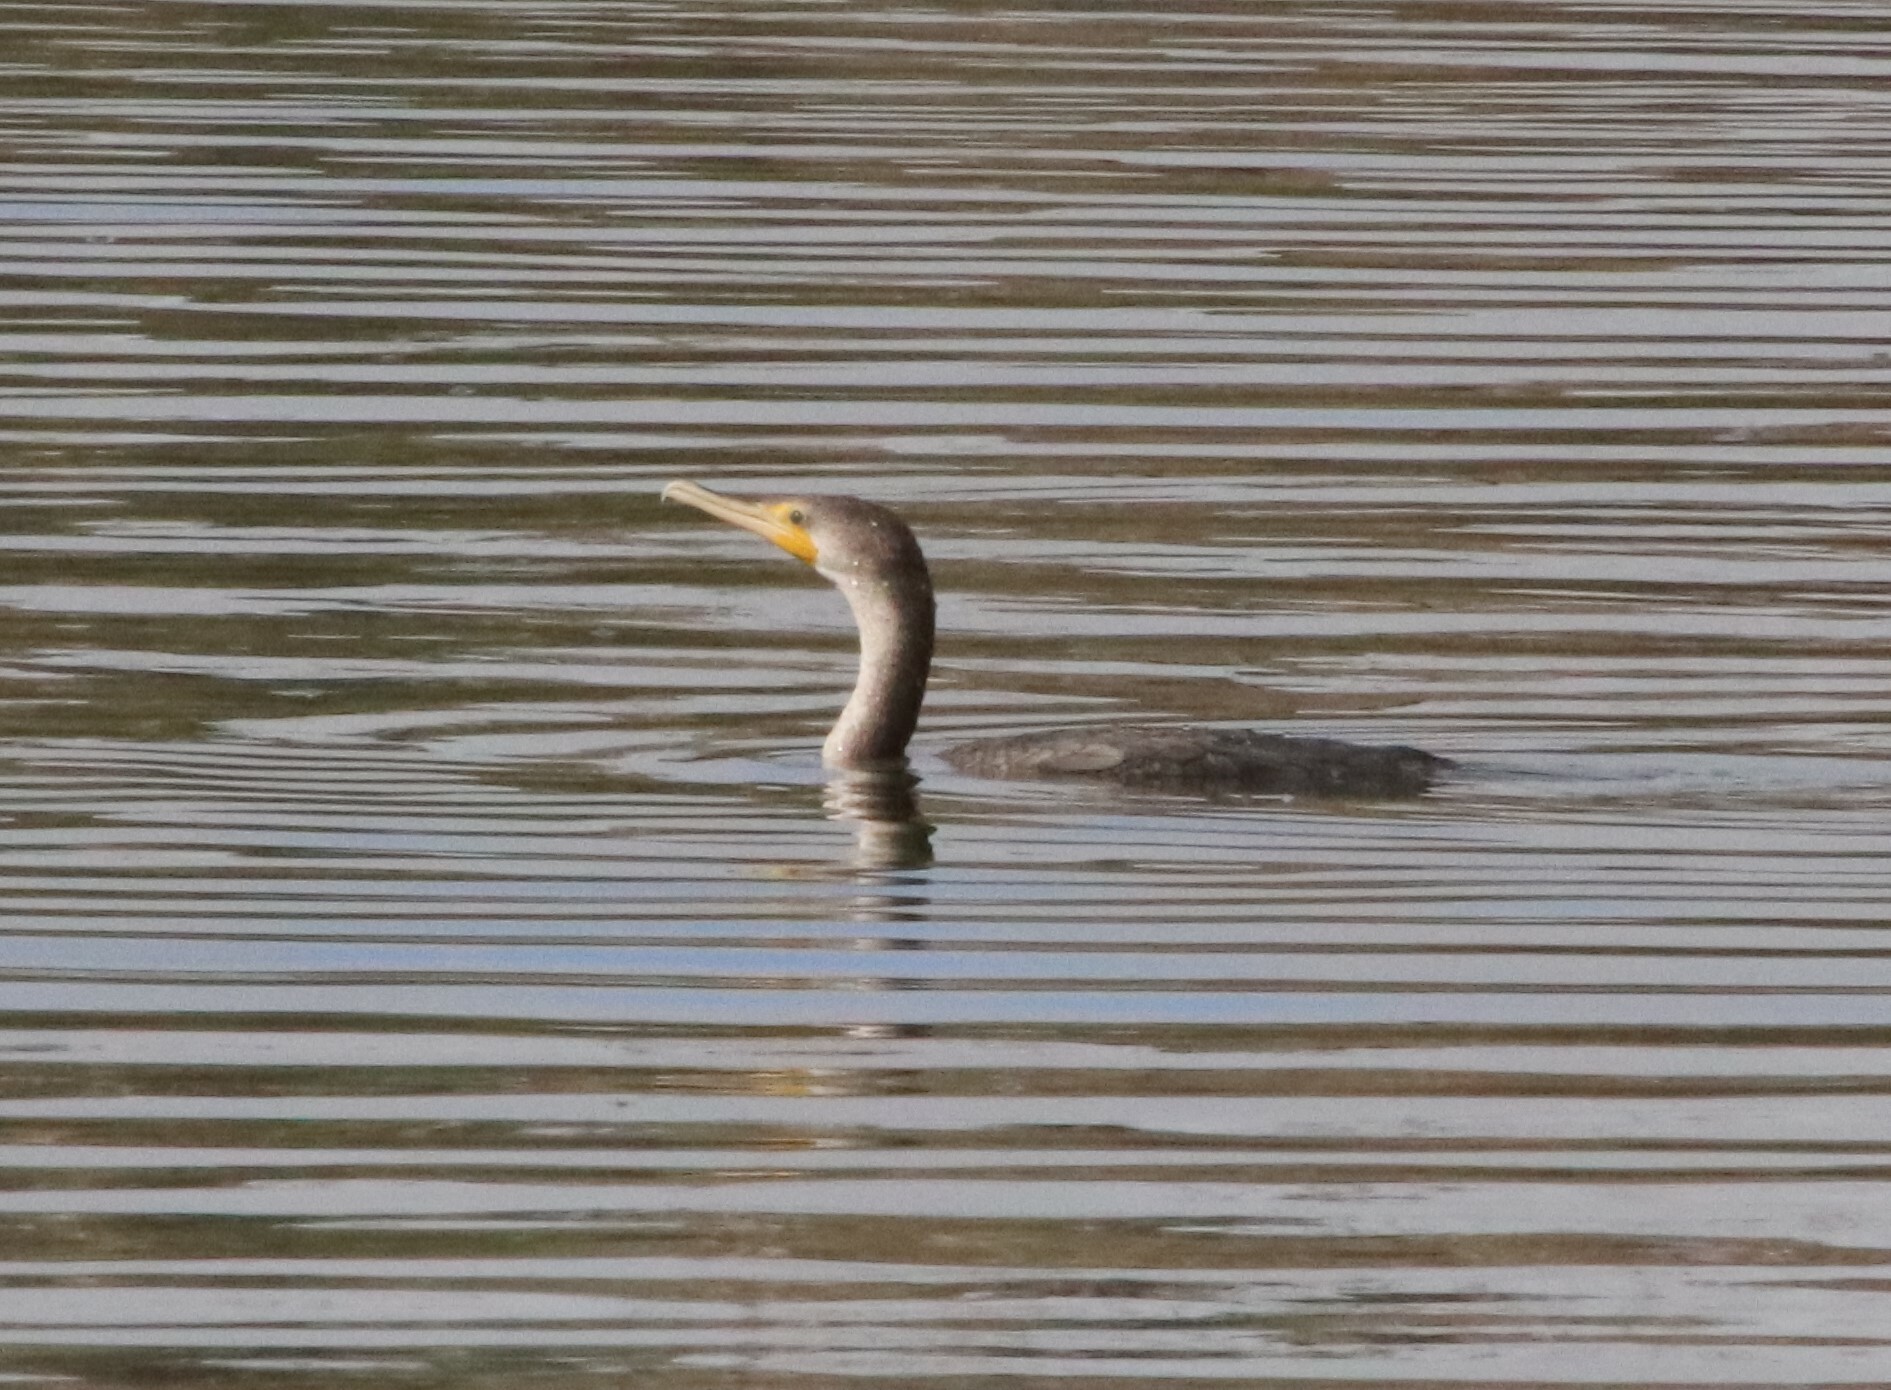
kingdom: Animalia
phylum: Chordata
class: Aves
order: Suliformes
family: Phalacrocoracidae
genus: Phalacrocorax
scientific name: Phalacrocorax auritus
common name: Double-crested cormorant
